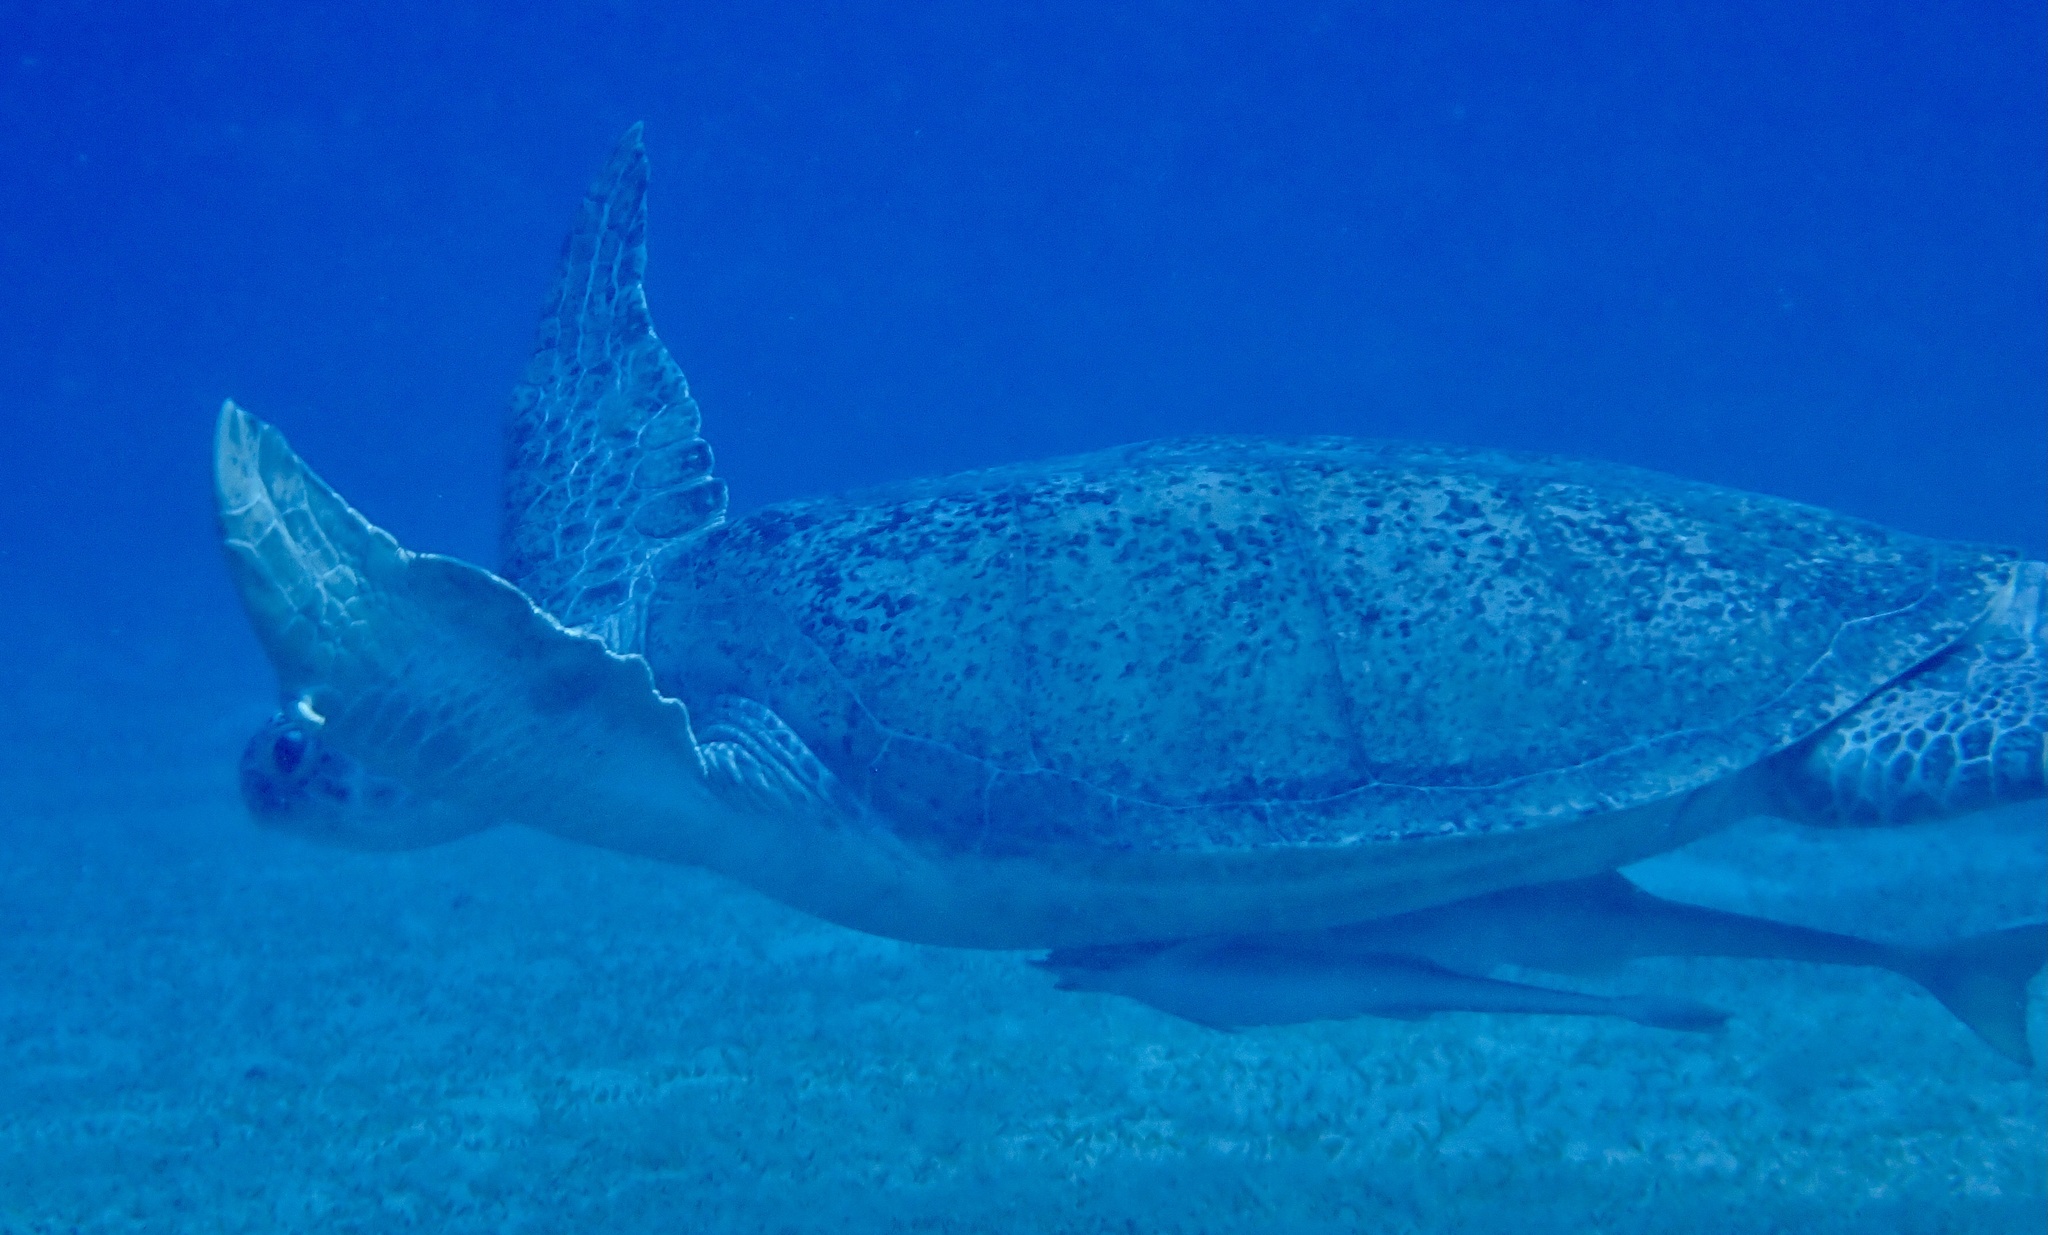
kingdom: Animalia
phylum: Chordata
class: Testudines
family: Cheloniidae
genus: Chelonia
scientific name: Chelonia mydas
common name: Green turtle
